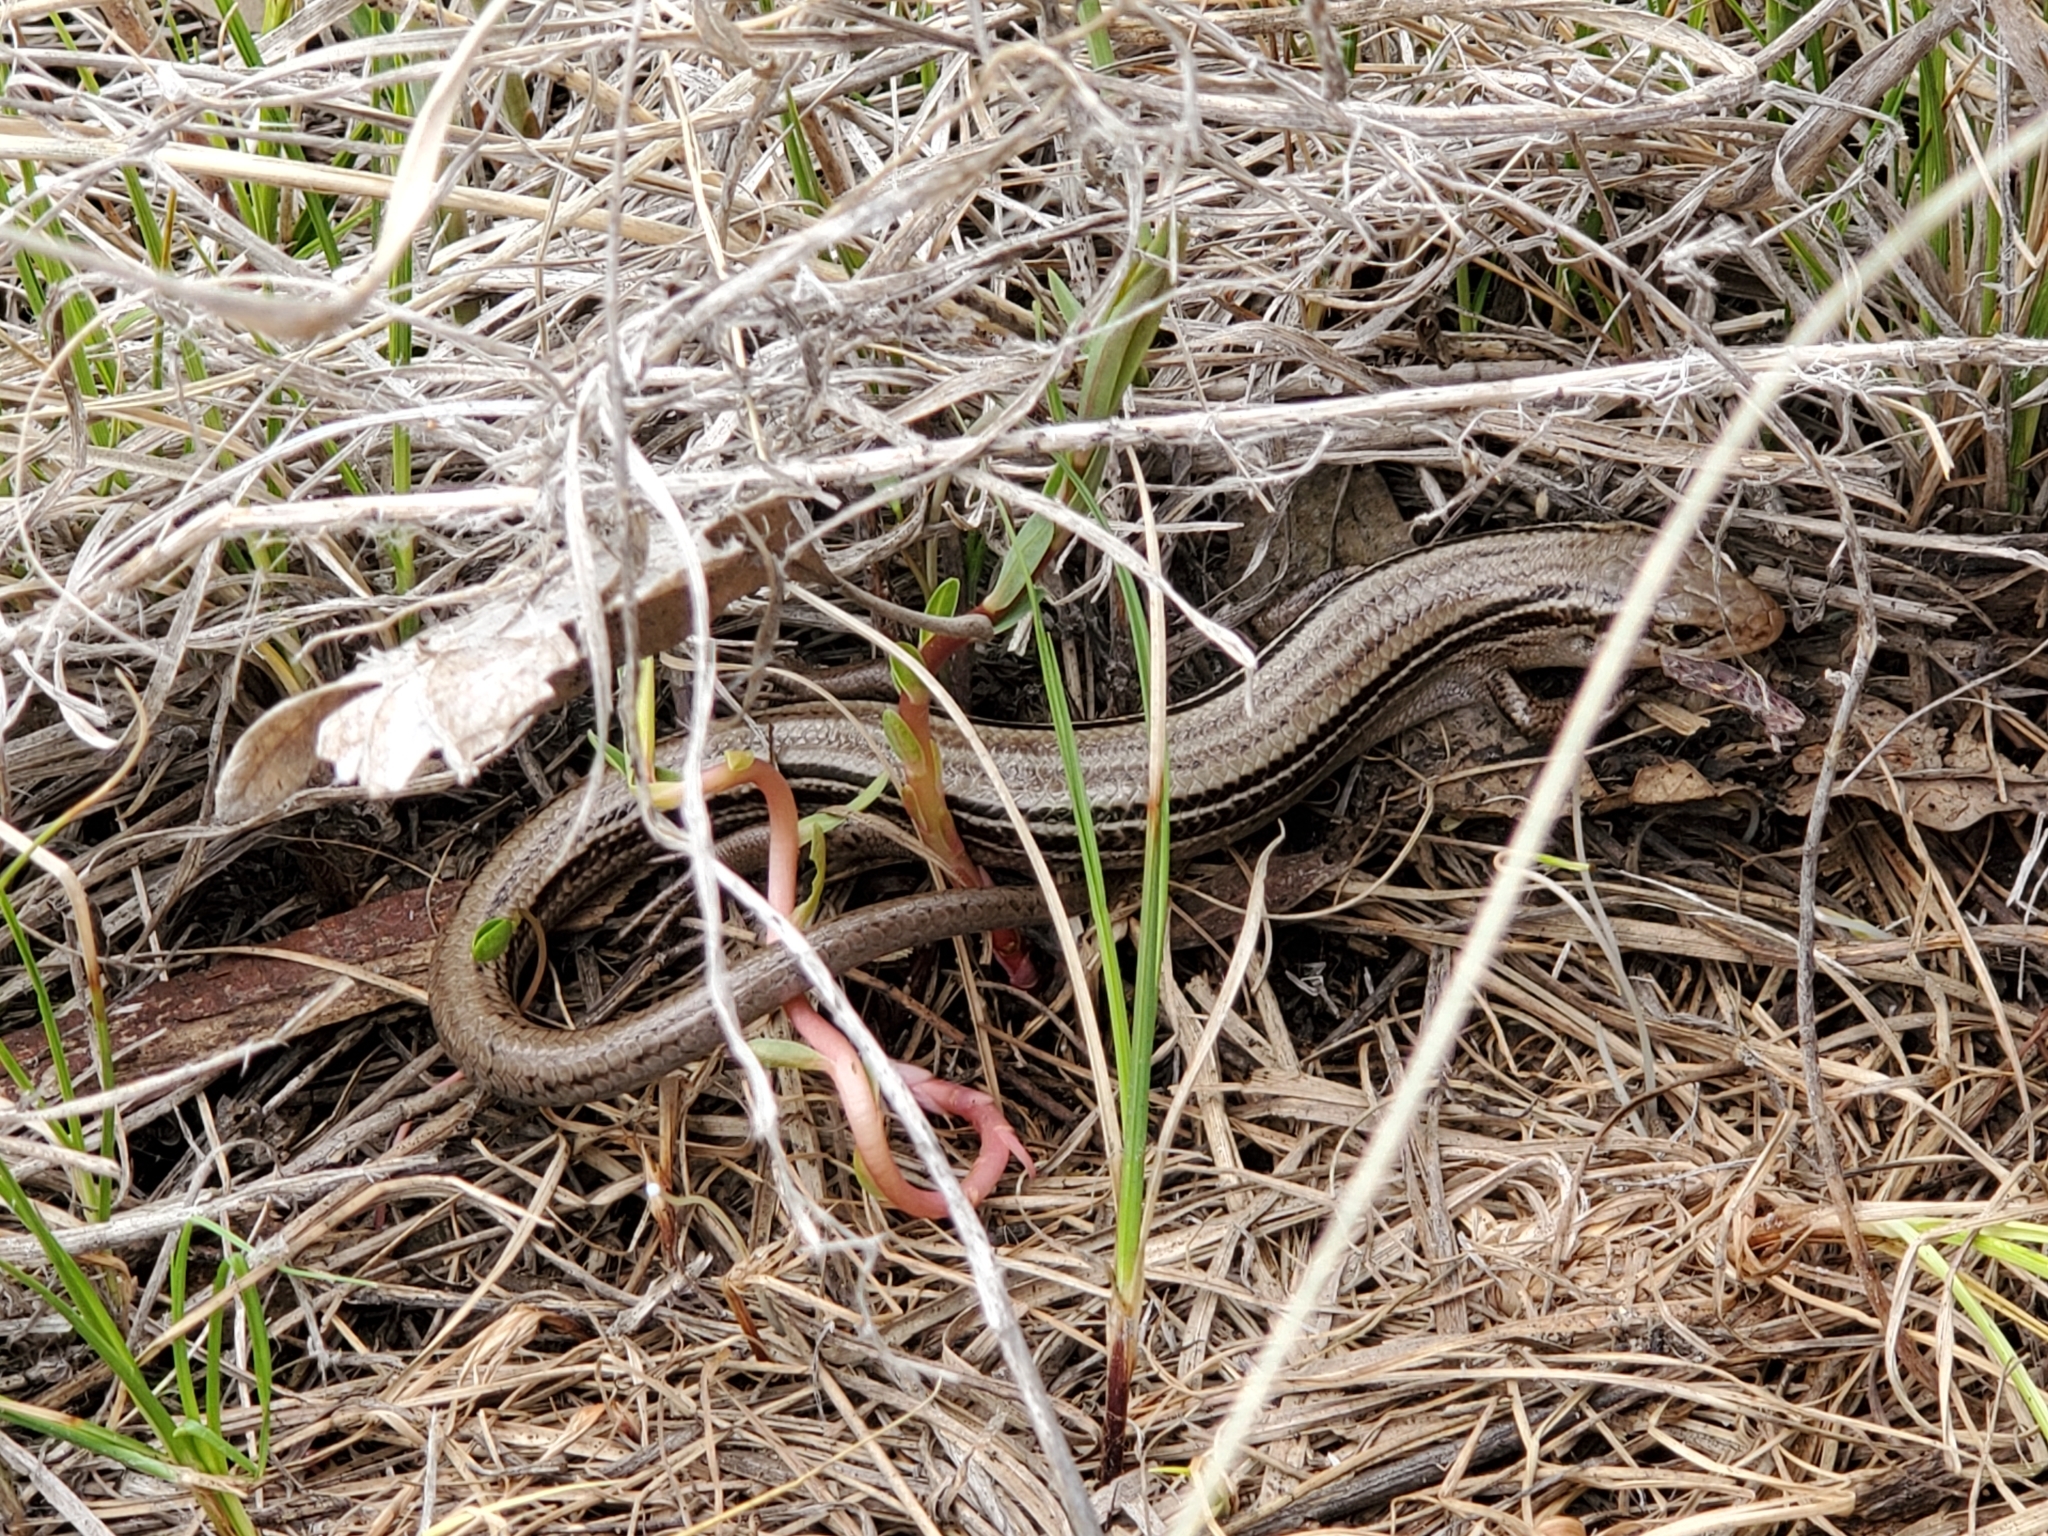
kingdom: Animalia
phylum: Chordata
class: Squamata
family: Scincidae
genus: Plestiodon
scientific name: Plestiodon septentrionalis
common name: Northern prairie skink
